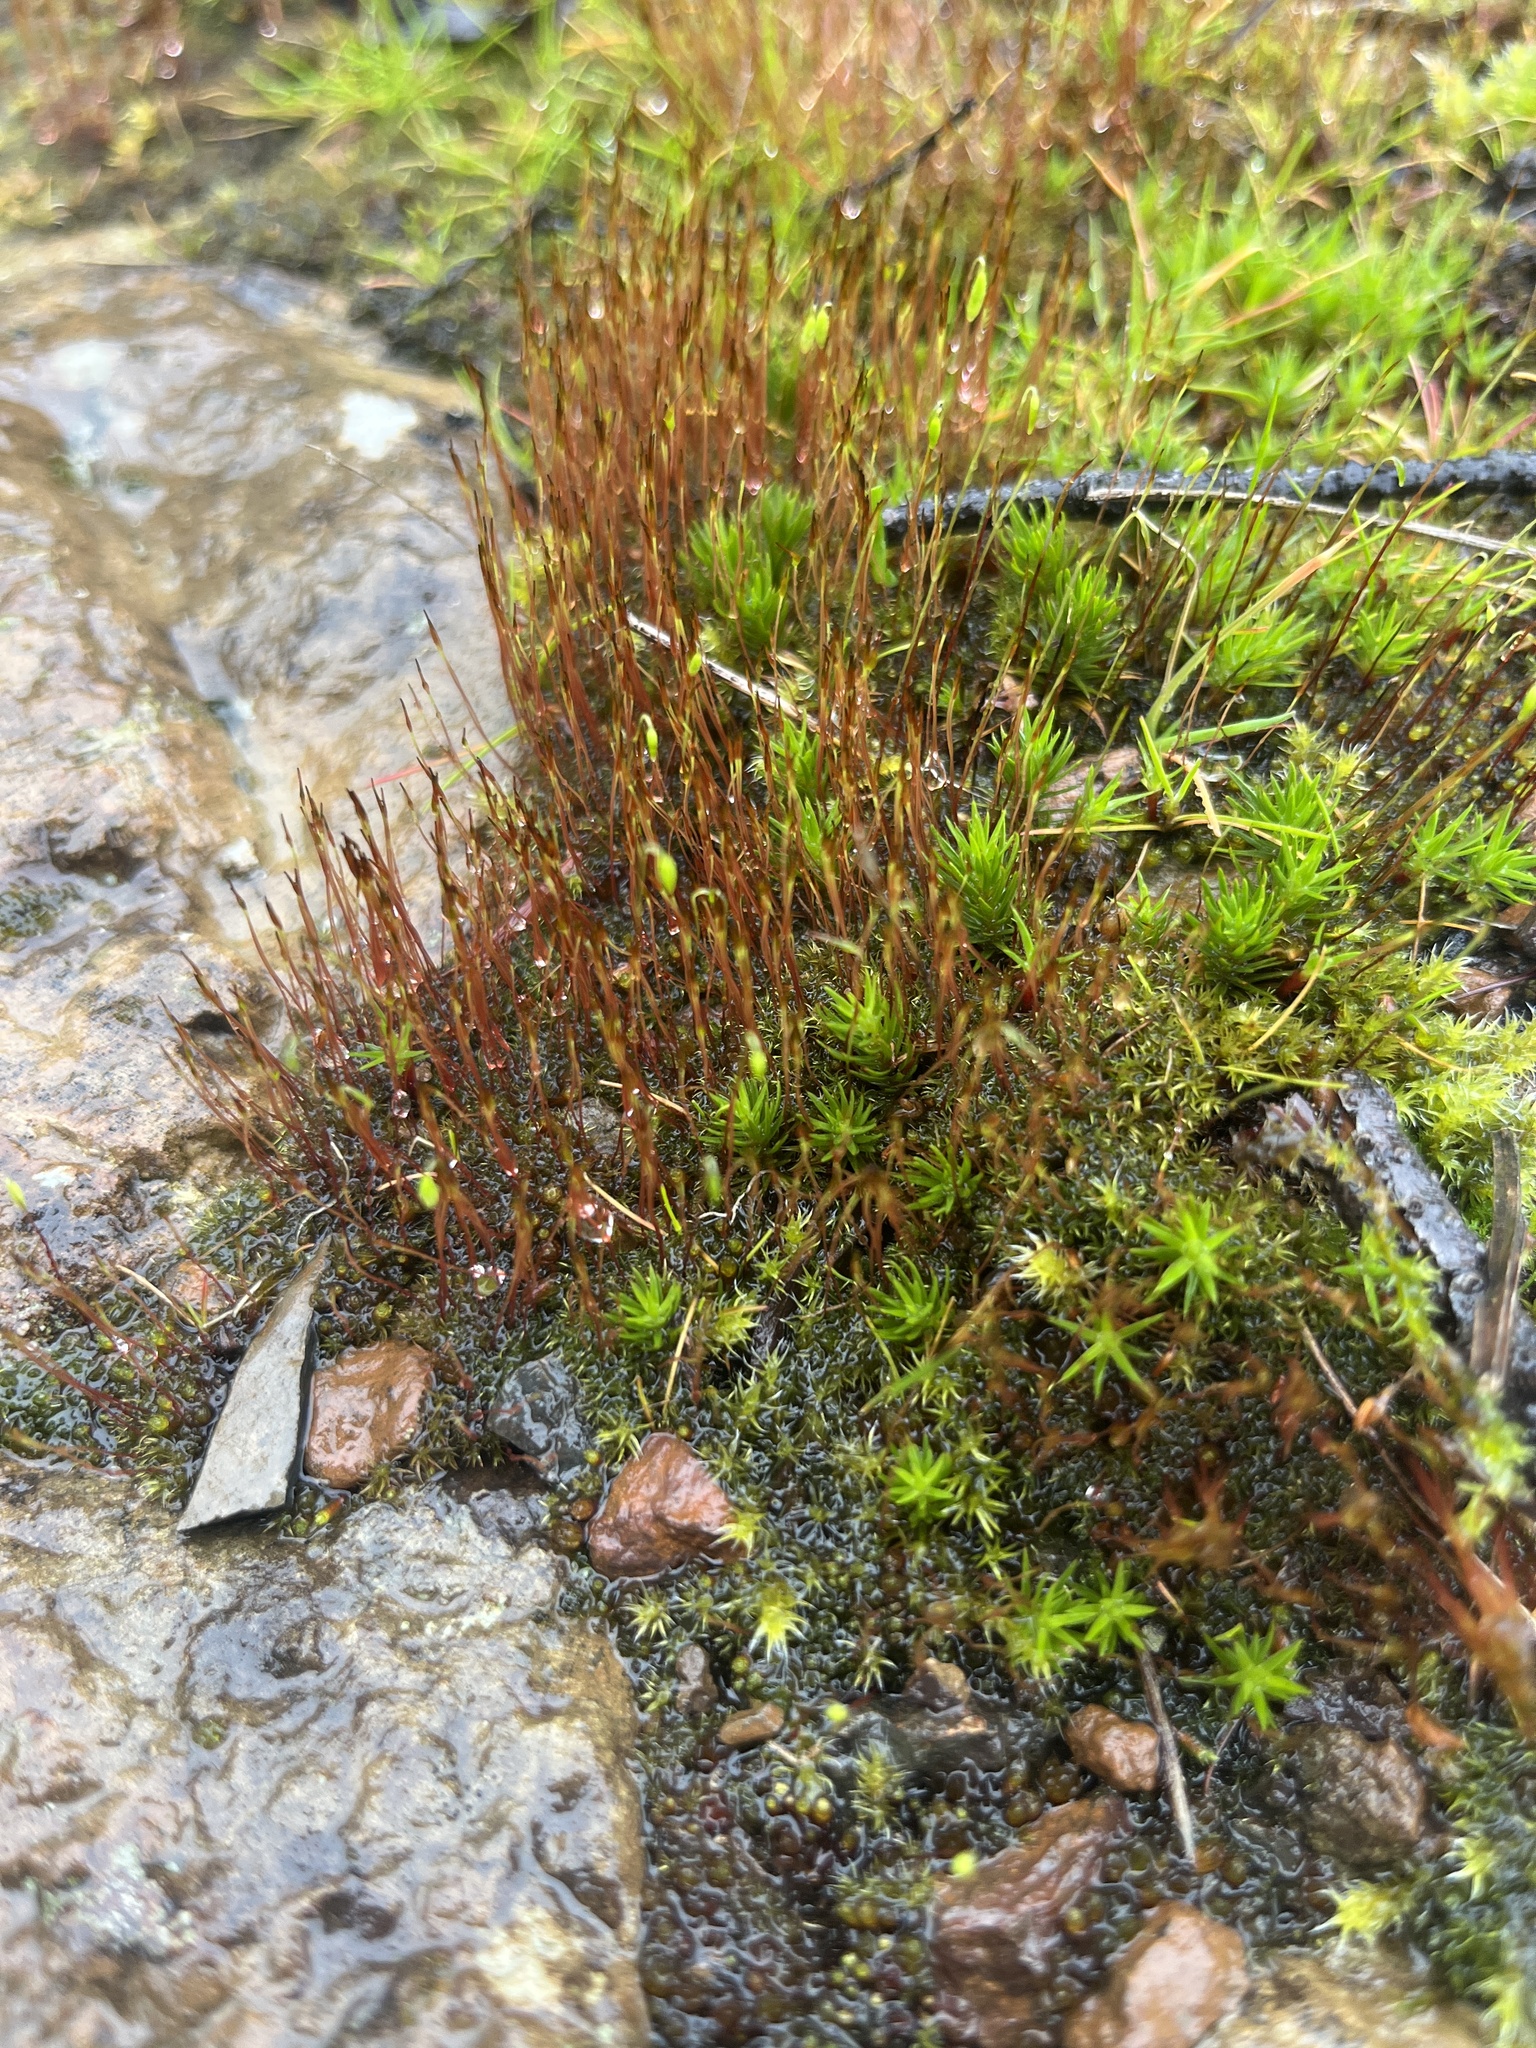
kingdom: Plantae
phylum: Bryophyta
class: Bryopsida
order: Dicranales
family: Ditrichaceae
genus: Ceratodon
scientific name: Ceratodon purpureus
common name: Redshank
